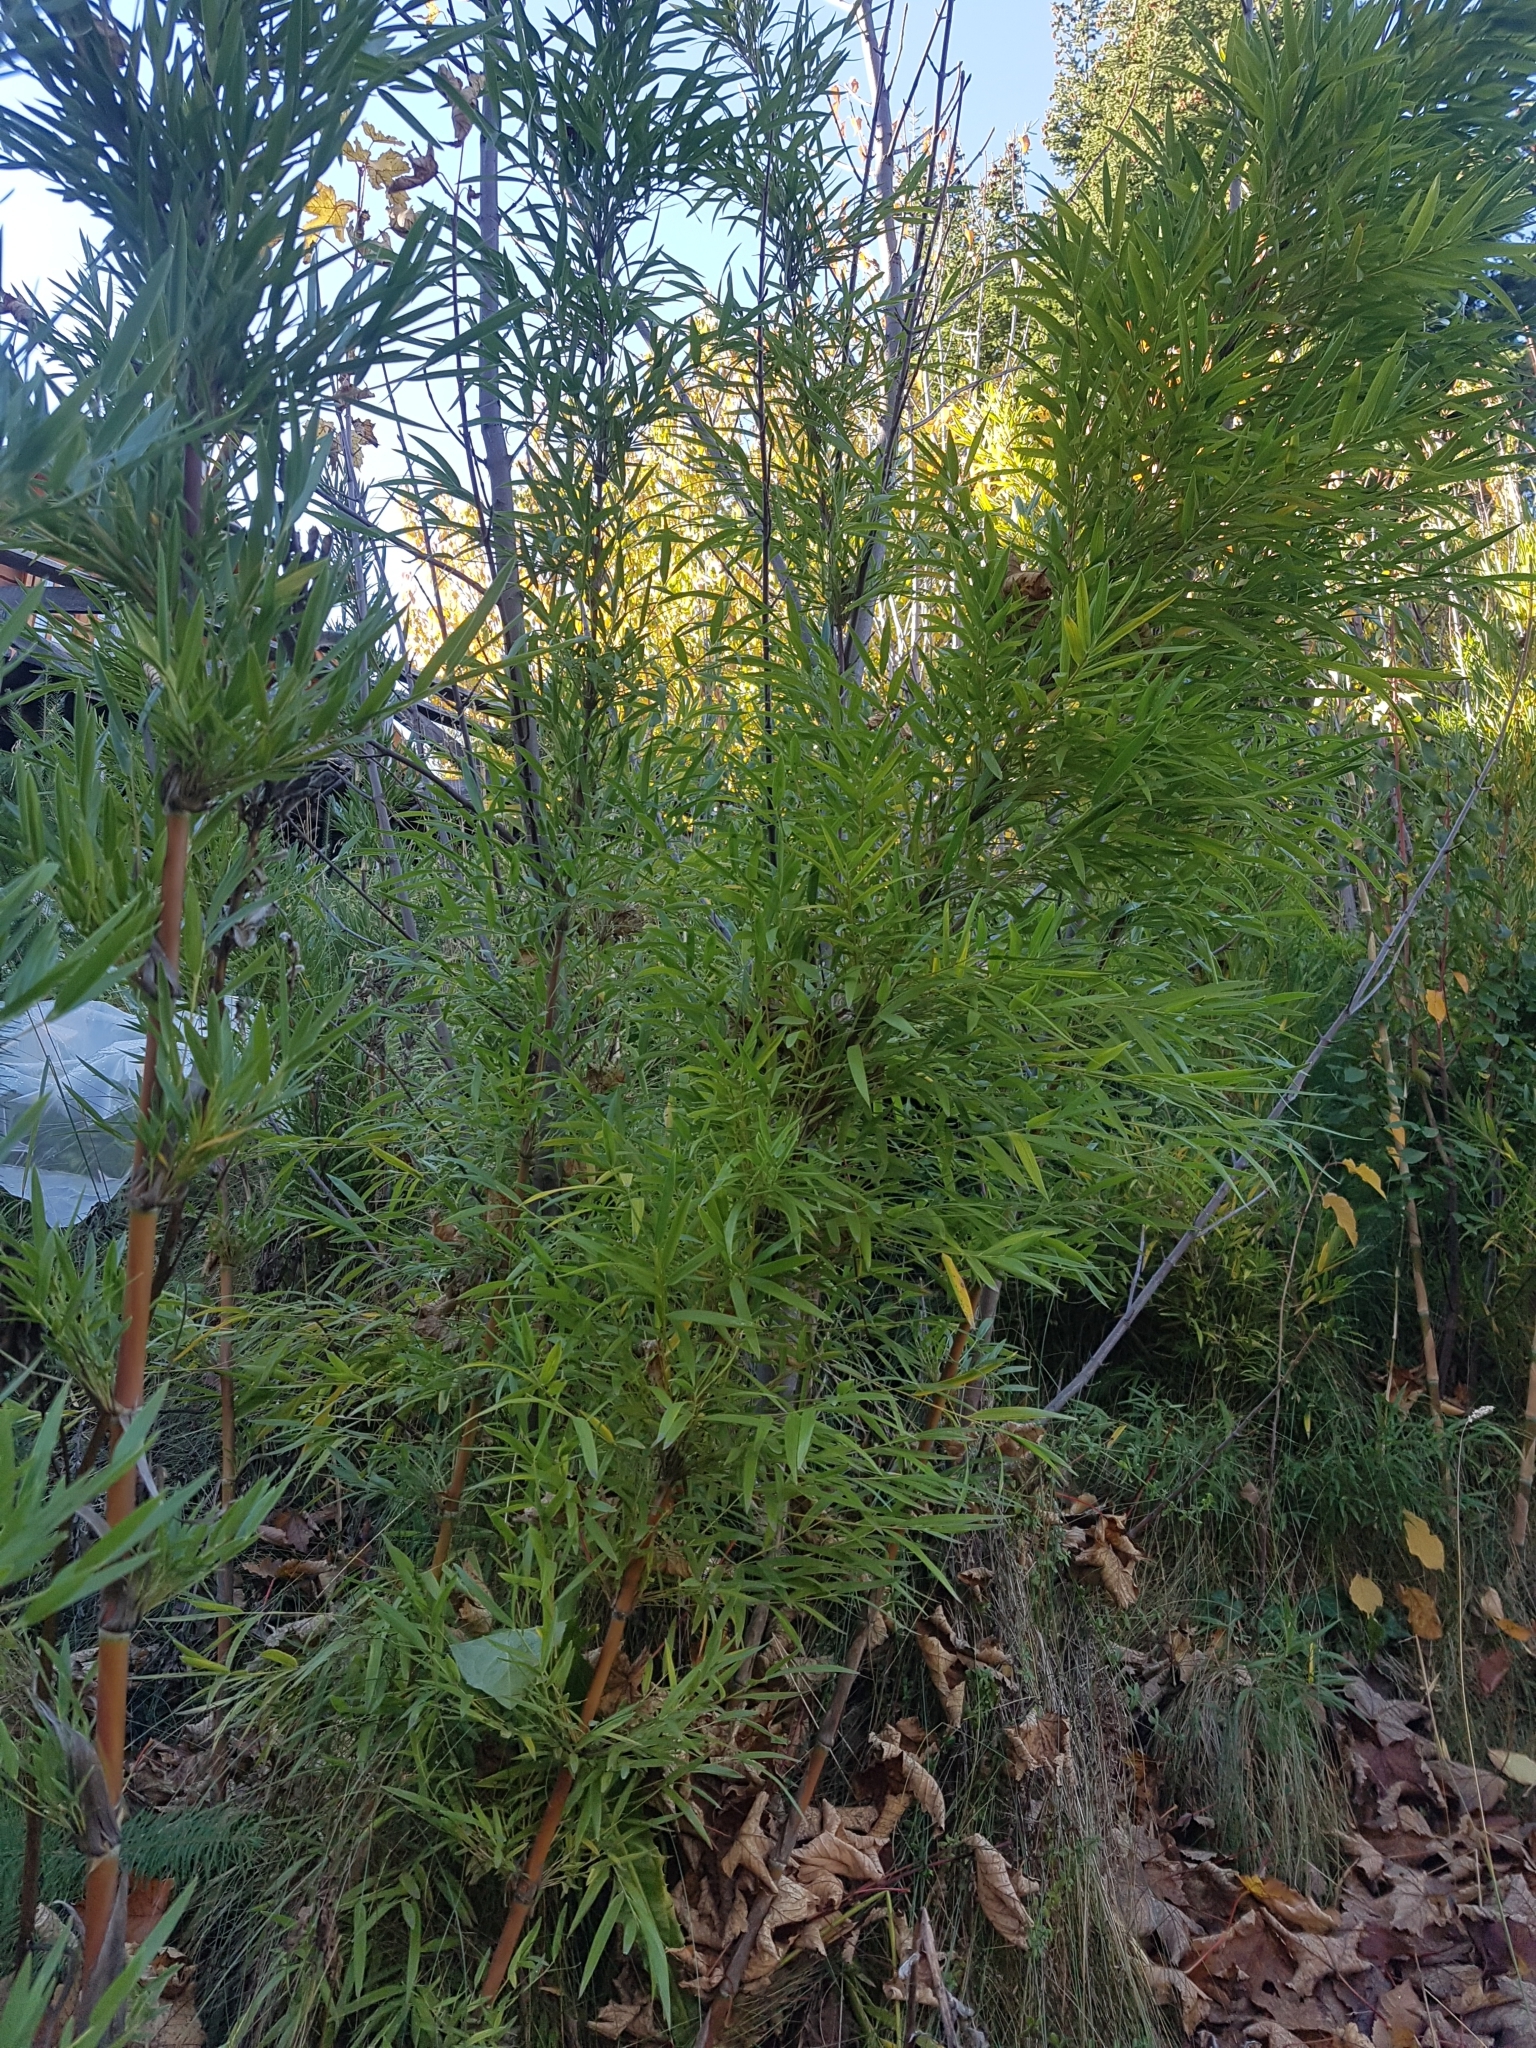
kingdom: Plantae
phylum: Tracheophyta
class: Liliopsida
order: Poales
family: Poaceae
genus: Chusquea
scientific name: Chusquea culeou
